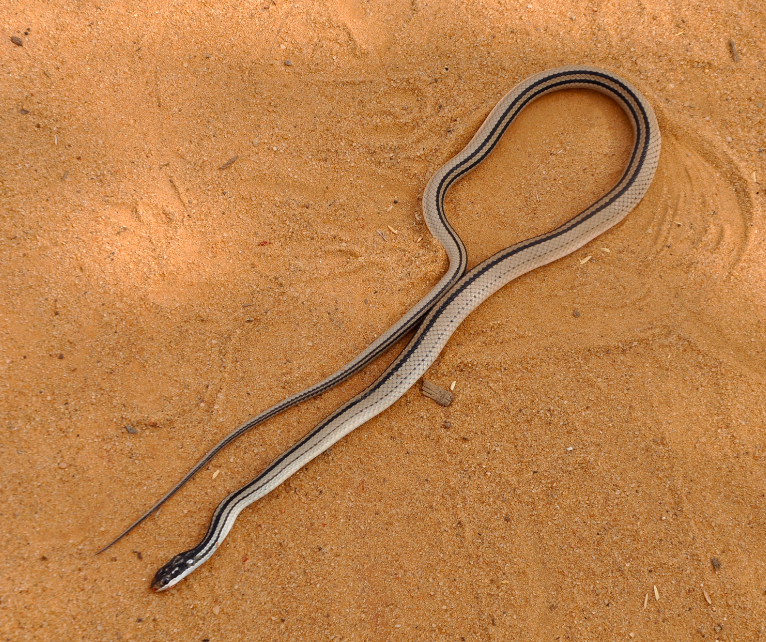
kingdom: Animalia
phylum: Chordata
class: Squamata
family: Pseudoxyrhophiidae
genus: Dromicodryas
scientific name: Dromicodryas quadrilineatus
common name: Four-striped snake
